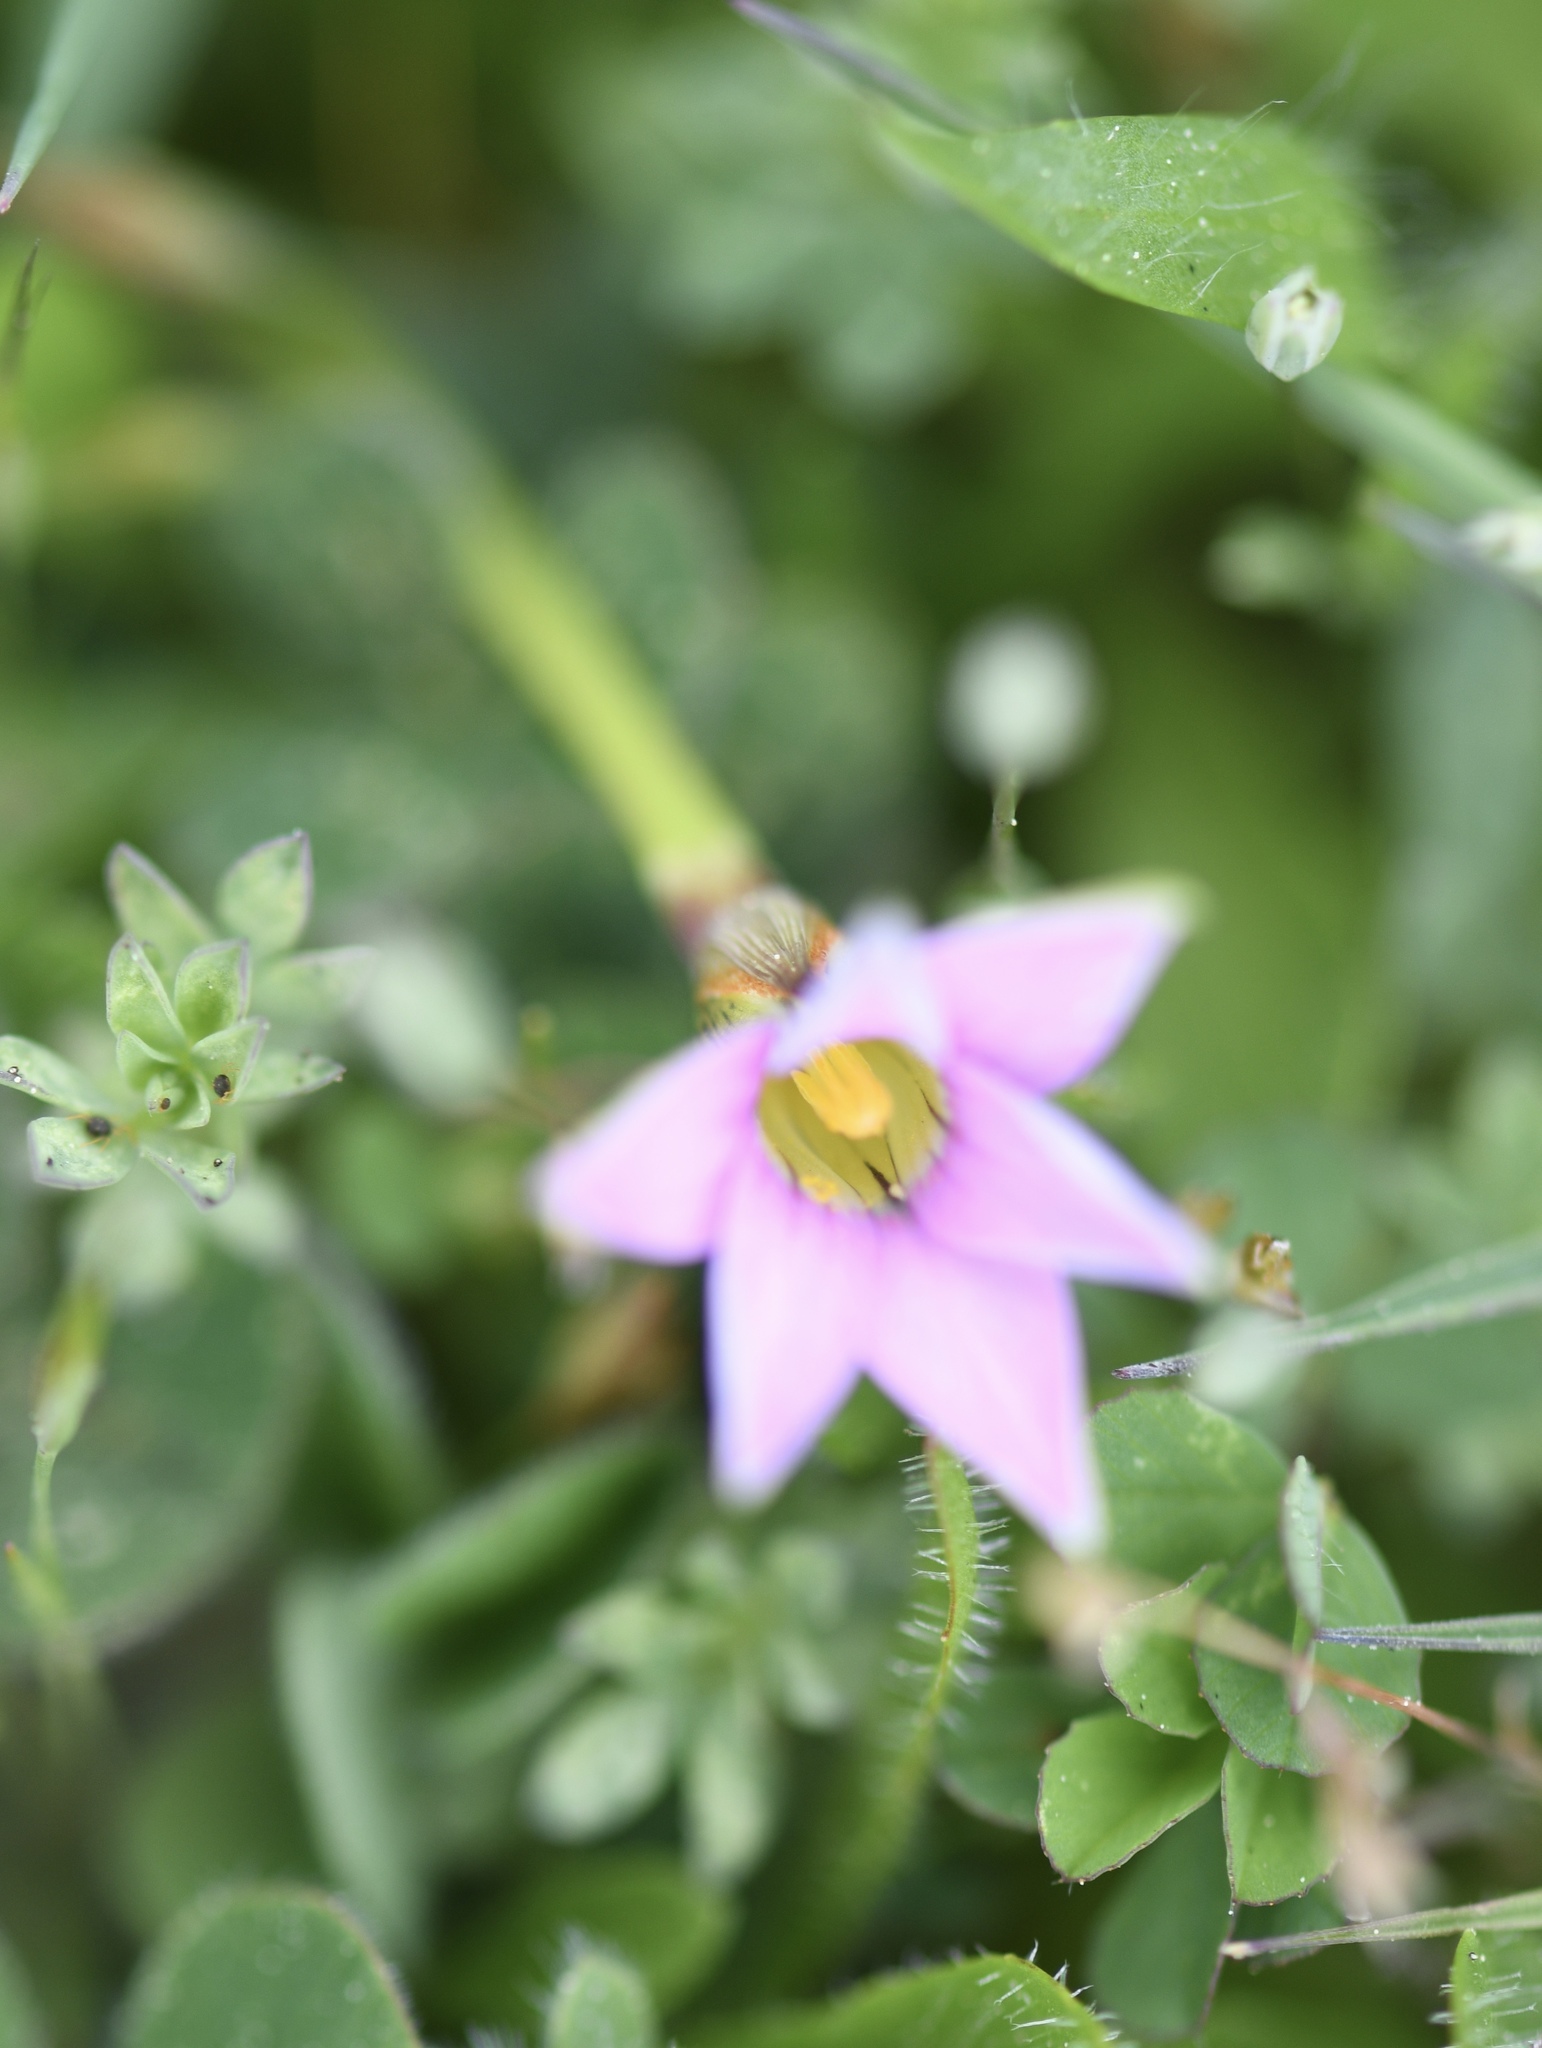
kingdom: Plantae
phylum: Tracheophyta
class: Liliopsida
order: Asparagales
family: Iridaceae
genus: Romulea
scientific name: Romulea rosea
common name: Oniongrass
